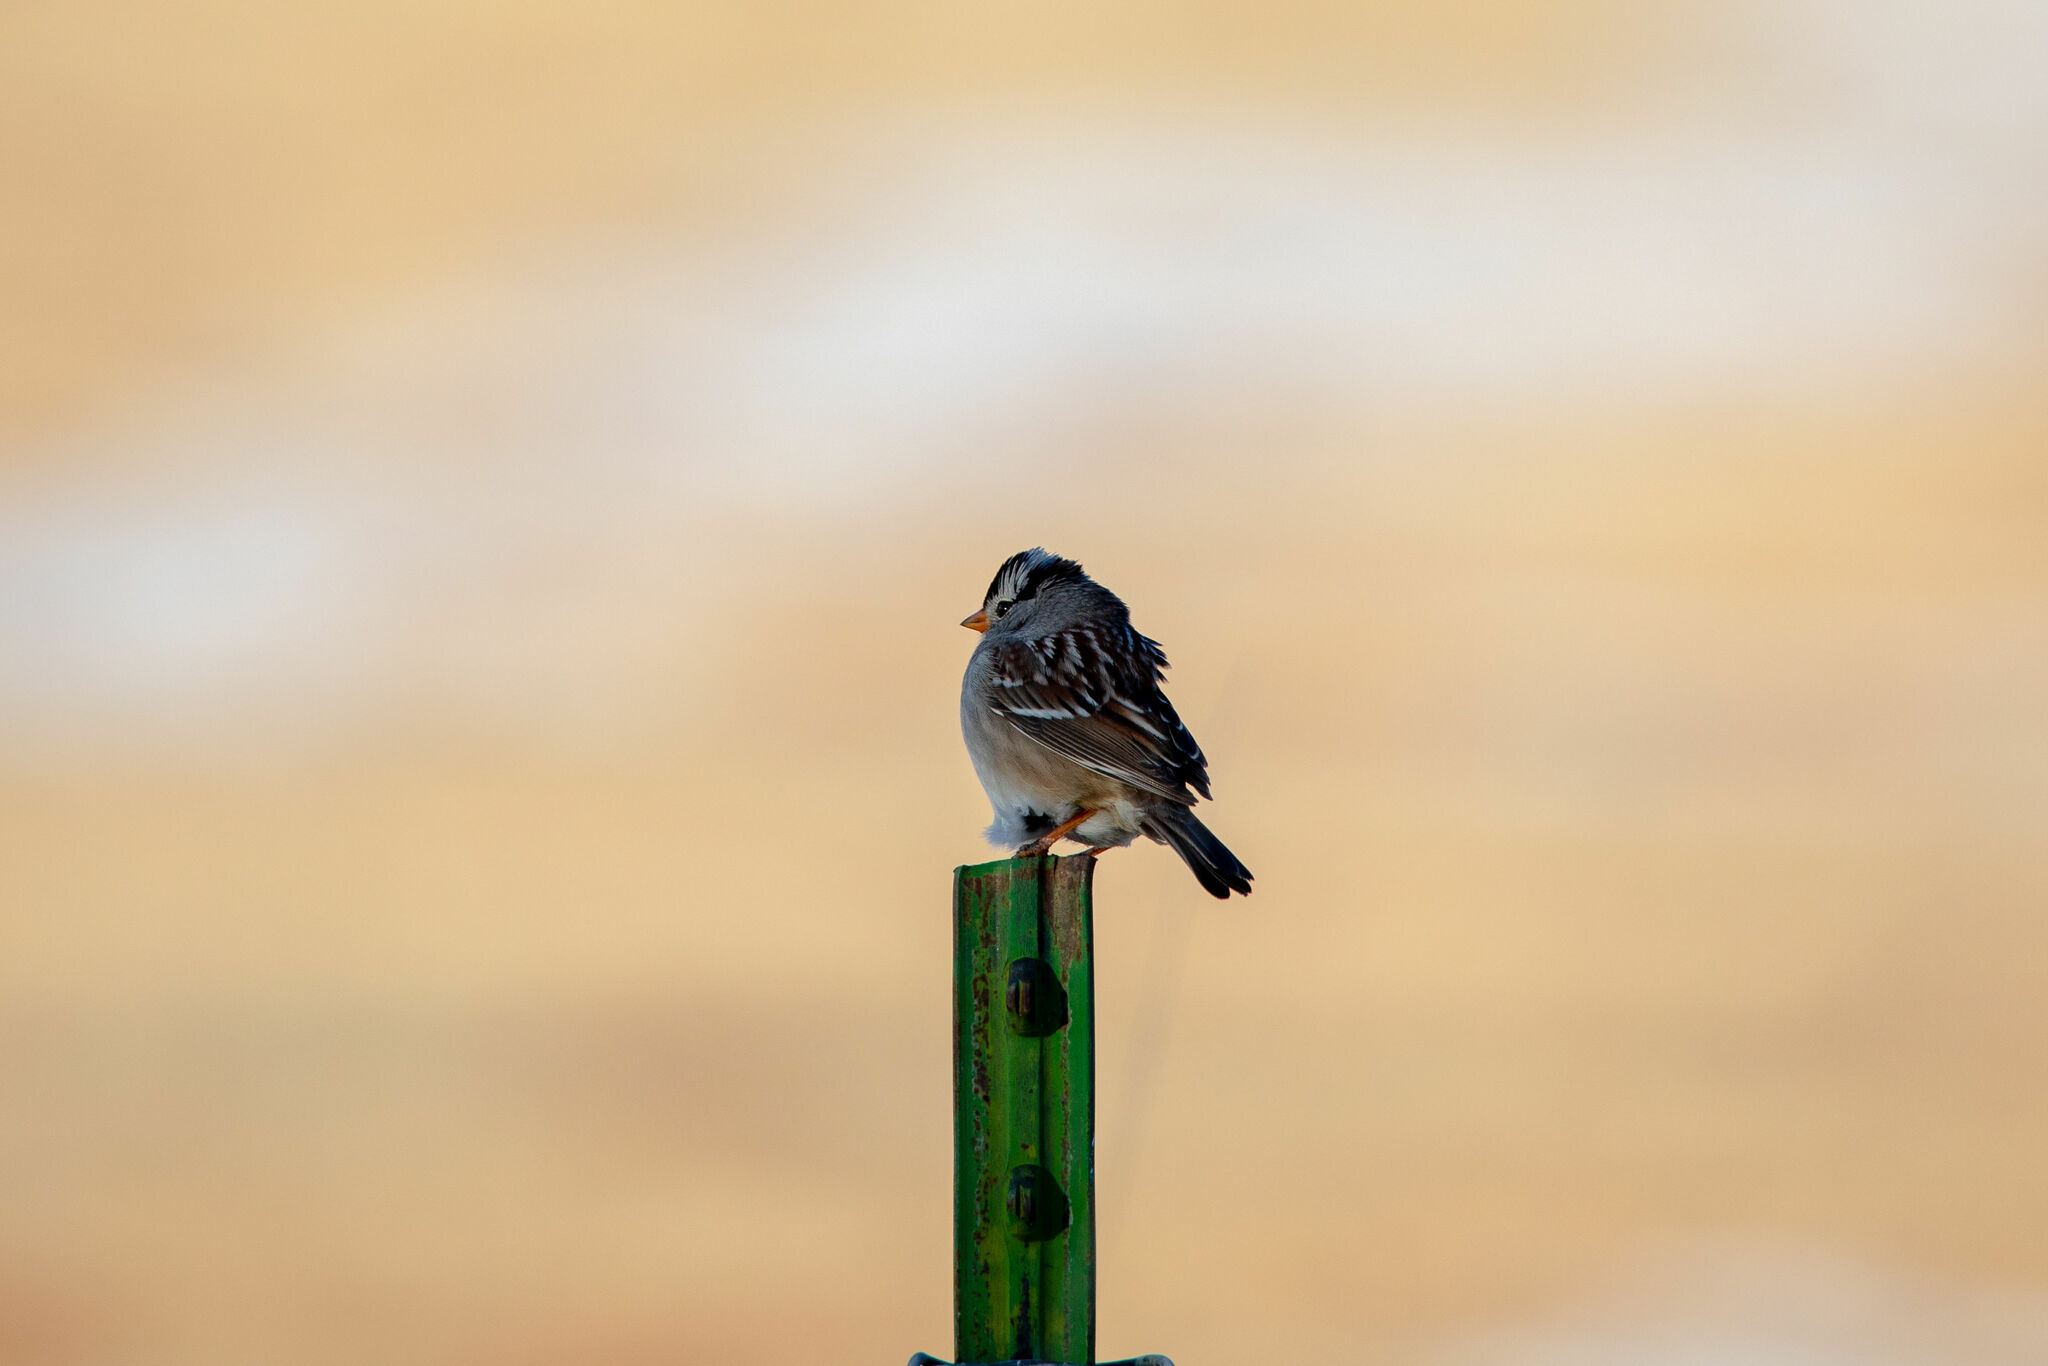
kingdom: Animalia
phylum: Chordata
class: Aves
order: Passeriformes
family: Passerellidae
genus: Zonotrichia
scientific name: Zonotrichia leucophrys
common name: White-crowned sparrow
